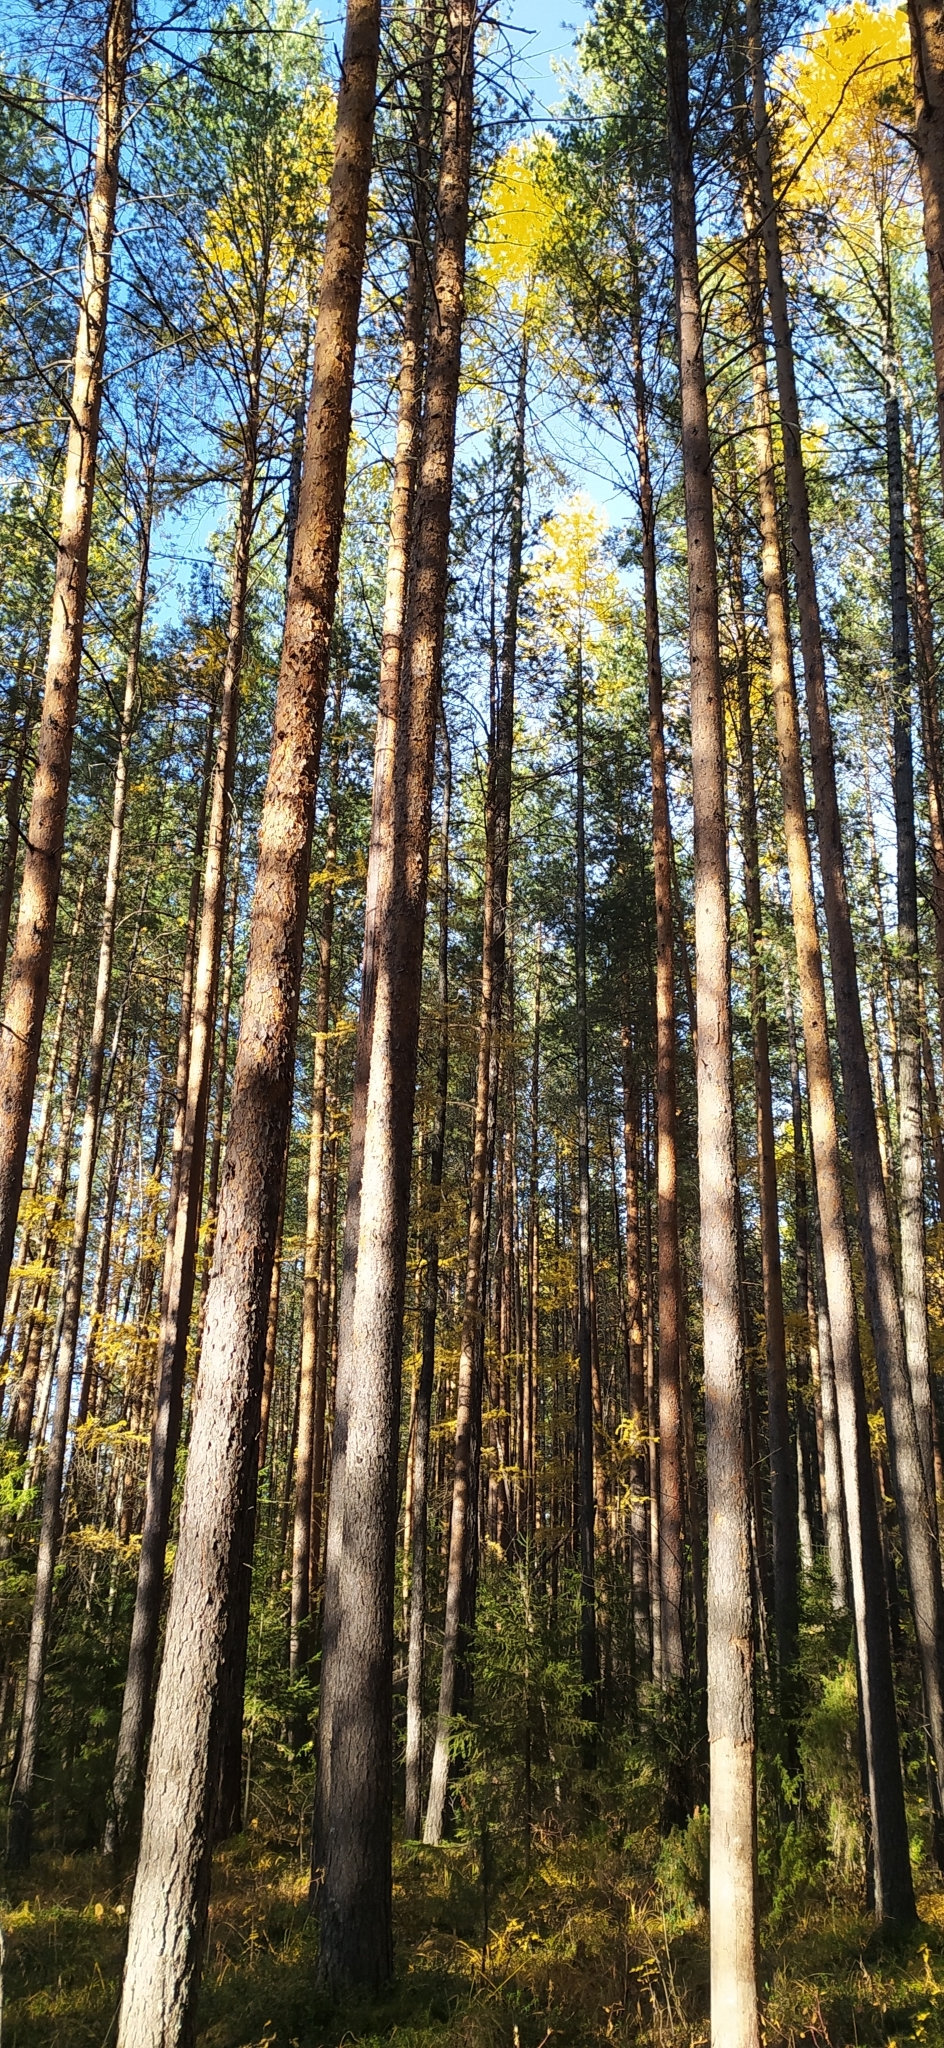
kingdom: Plantae
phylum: Tracheophyta
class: Pinopsida
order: Pinales
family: Pinaceae
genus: Pinus
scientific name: Pinus sylvestris
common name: Scots pine
